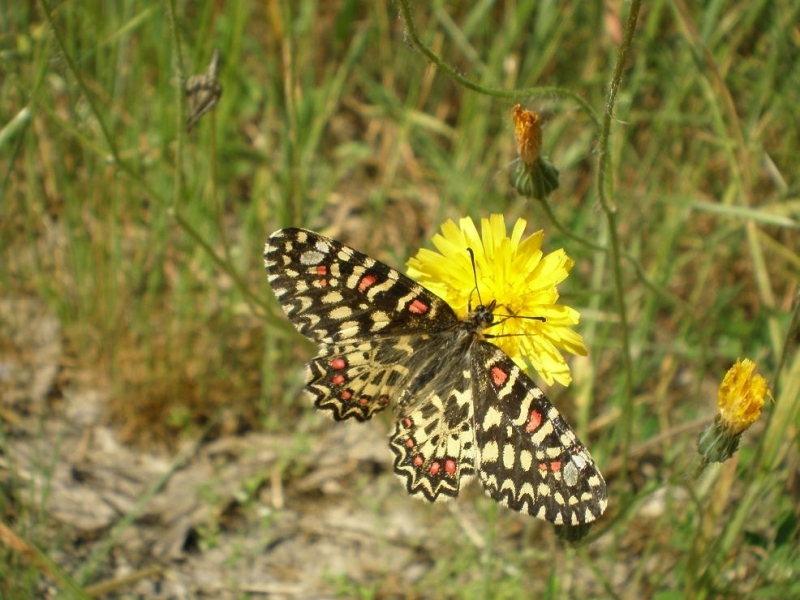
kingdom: Animalia
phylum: Arthropoda
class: Insecta
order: Lepidoptera
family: Papilionidae
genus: Zerynthia
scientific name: Zerynthia rumina
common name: Spanish festoon
